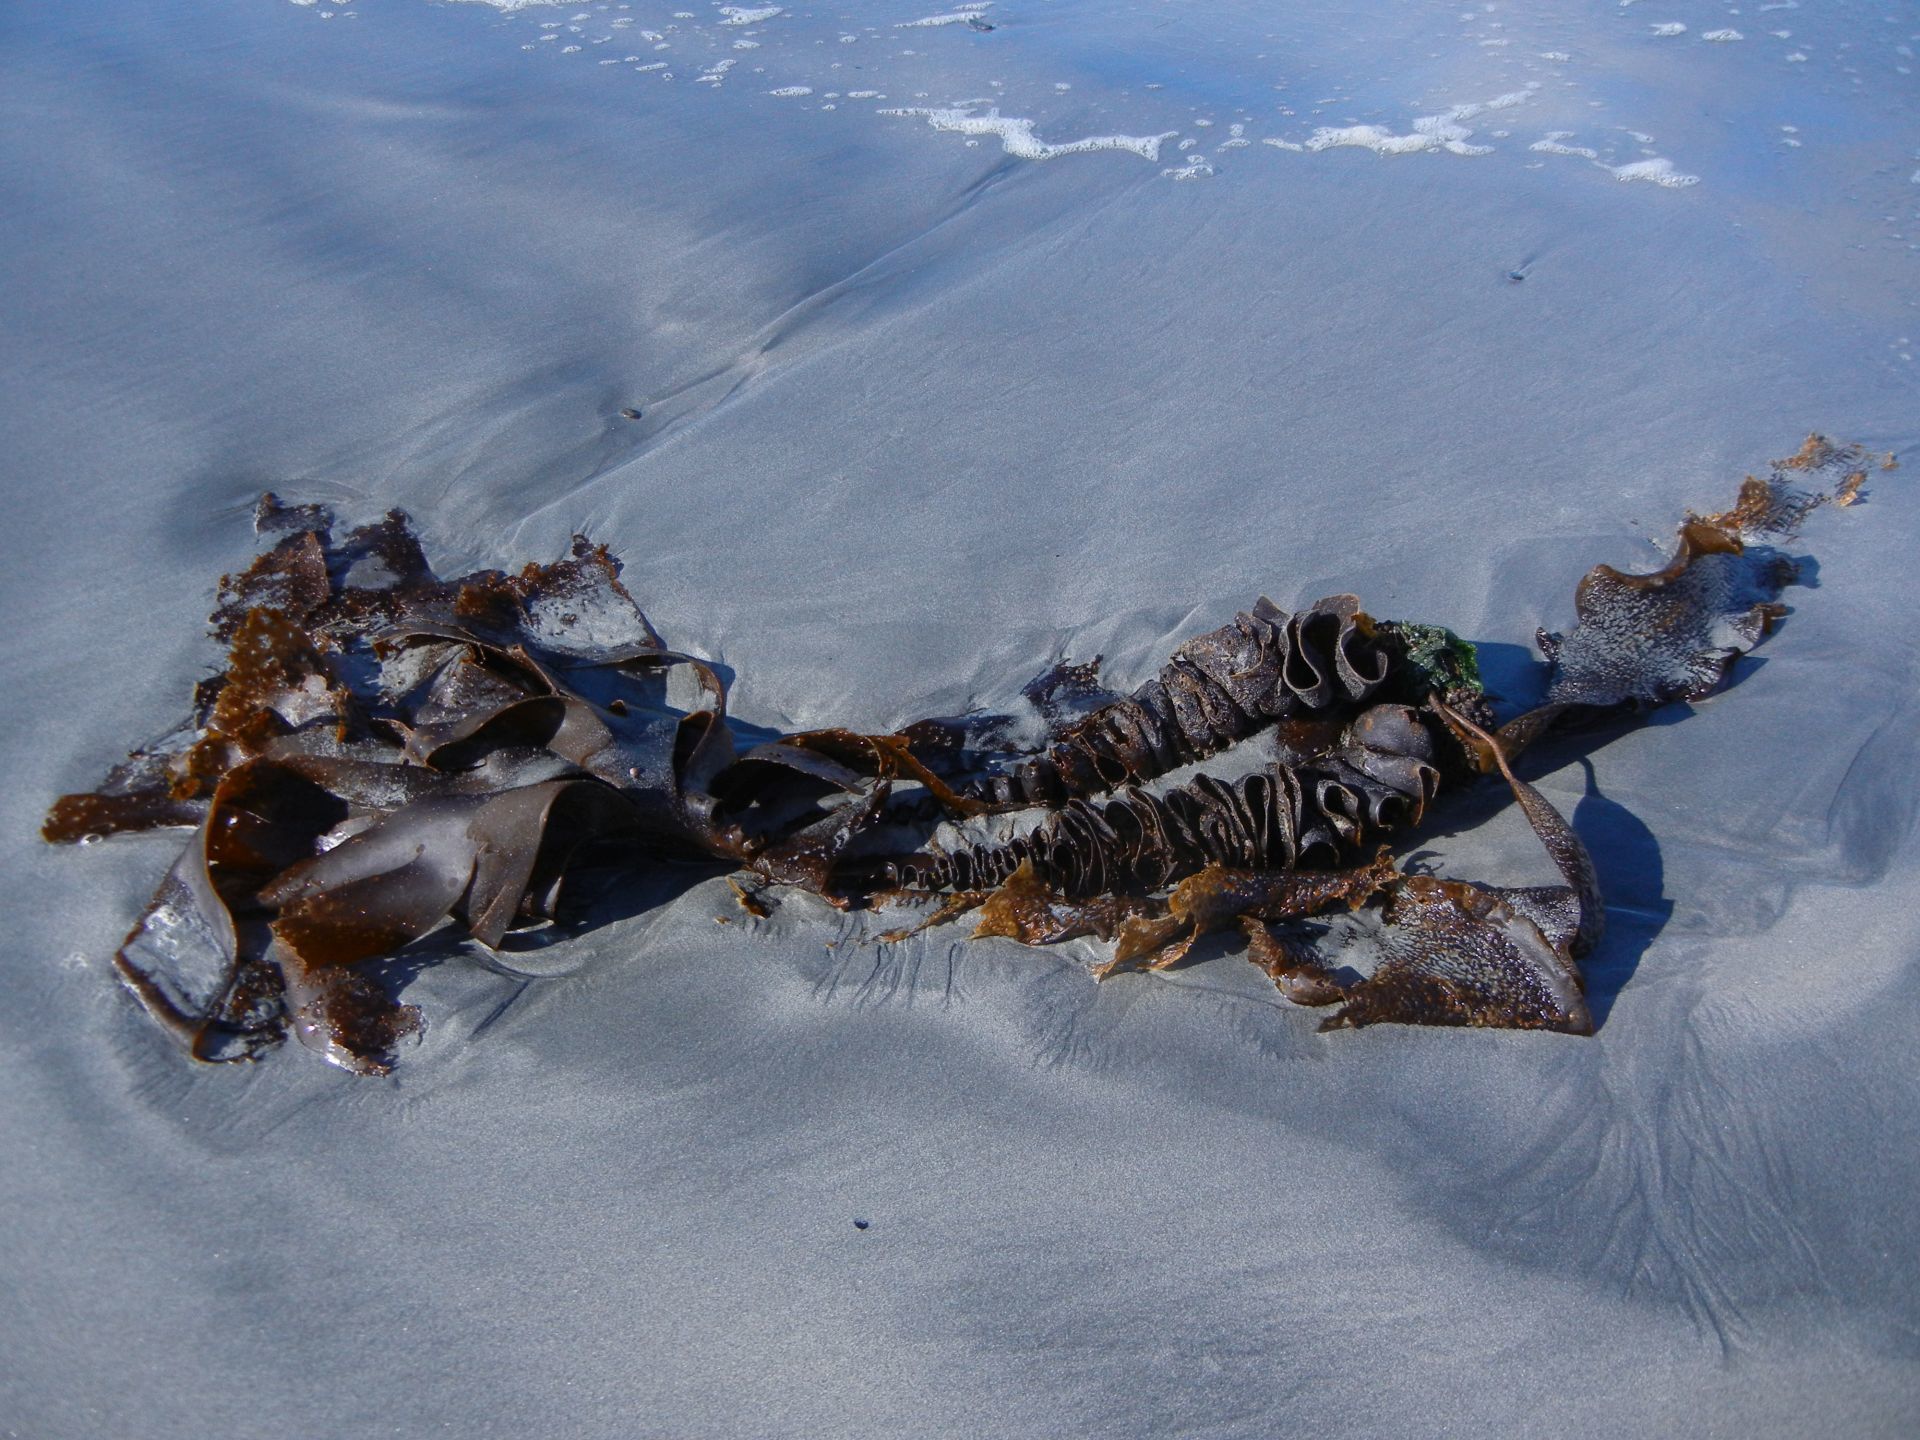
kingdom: Chromista
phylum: Ochrophyta
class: Phaeophyceae
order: Tilopteridales
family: Phyllariaceae
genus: Saccorhiza
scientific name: Saccorhiza polyschides
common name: Furbelows
